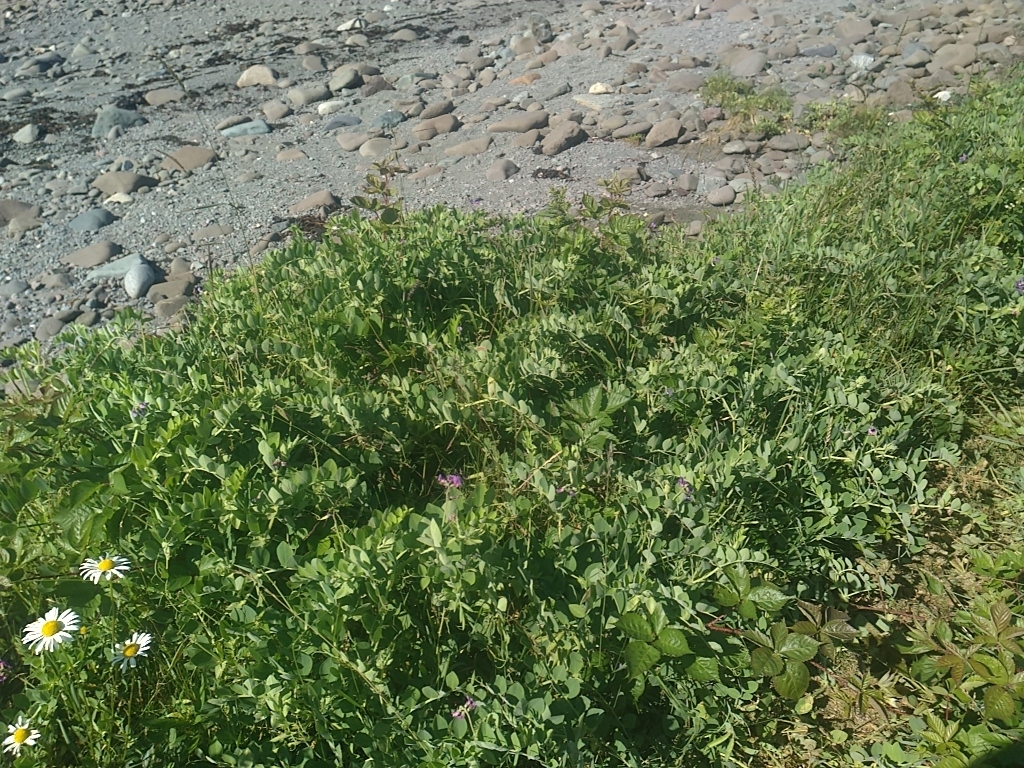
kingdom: Plantae
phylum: Tracheophyta
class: Magnoliopsida
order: Fabales
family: Fabaceae
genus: Lathyrus
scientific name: Lathyrus japonicus
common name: Sea pea
